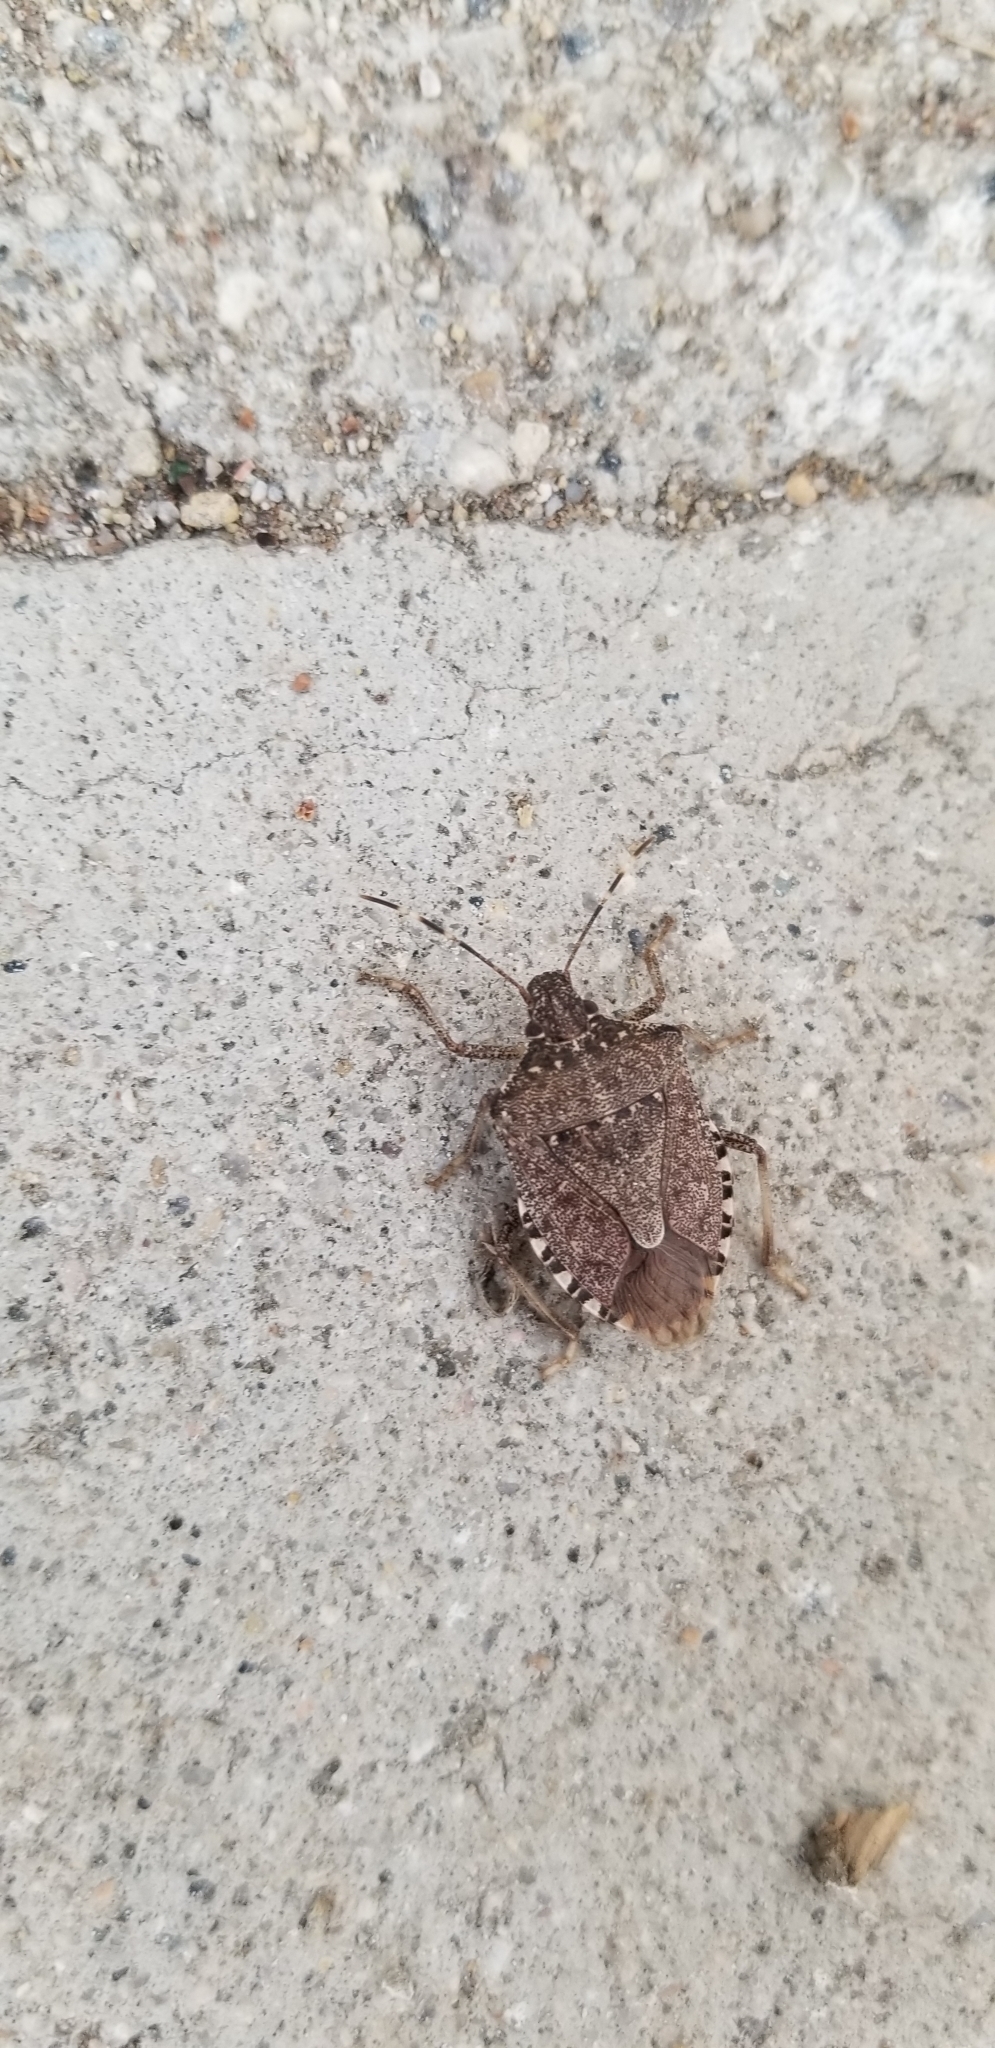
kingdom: Animalia
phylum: Arthropoda
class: Insecta
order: Hemiptera
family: Pentatomidae
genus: Halyomorpha
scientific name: Halyomorpha halys
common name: Brown marmorated stink bug
